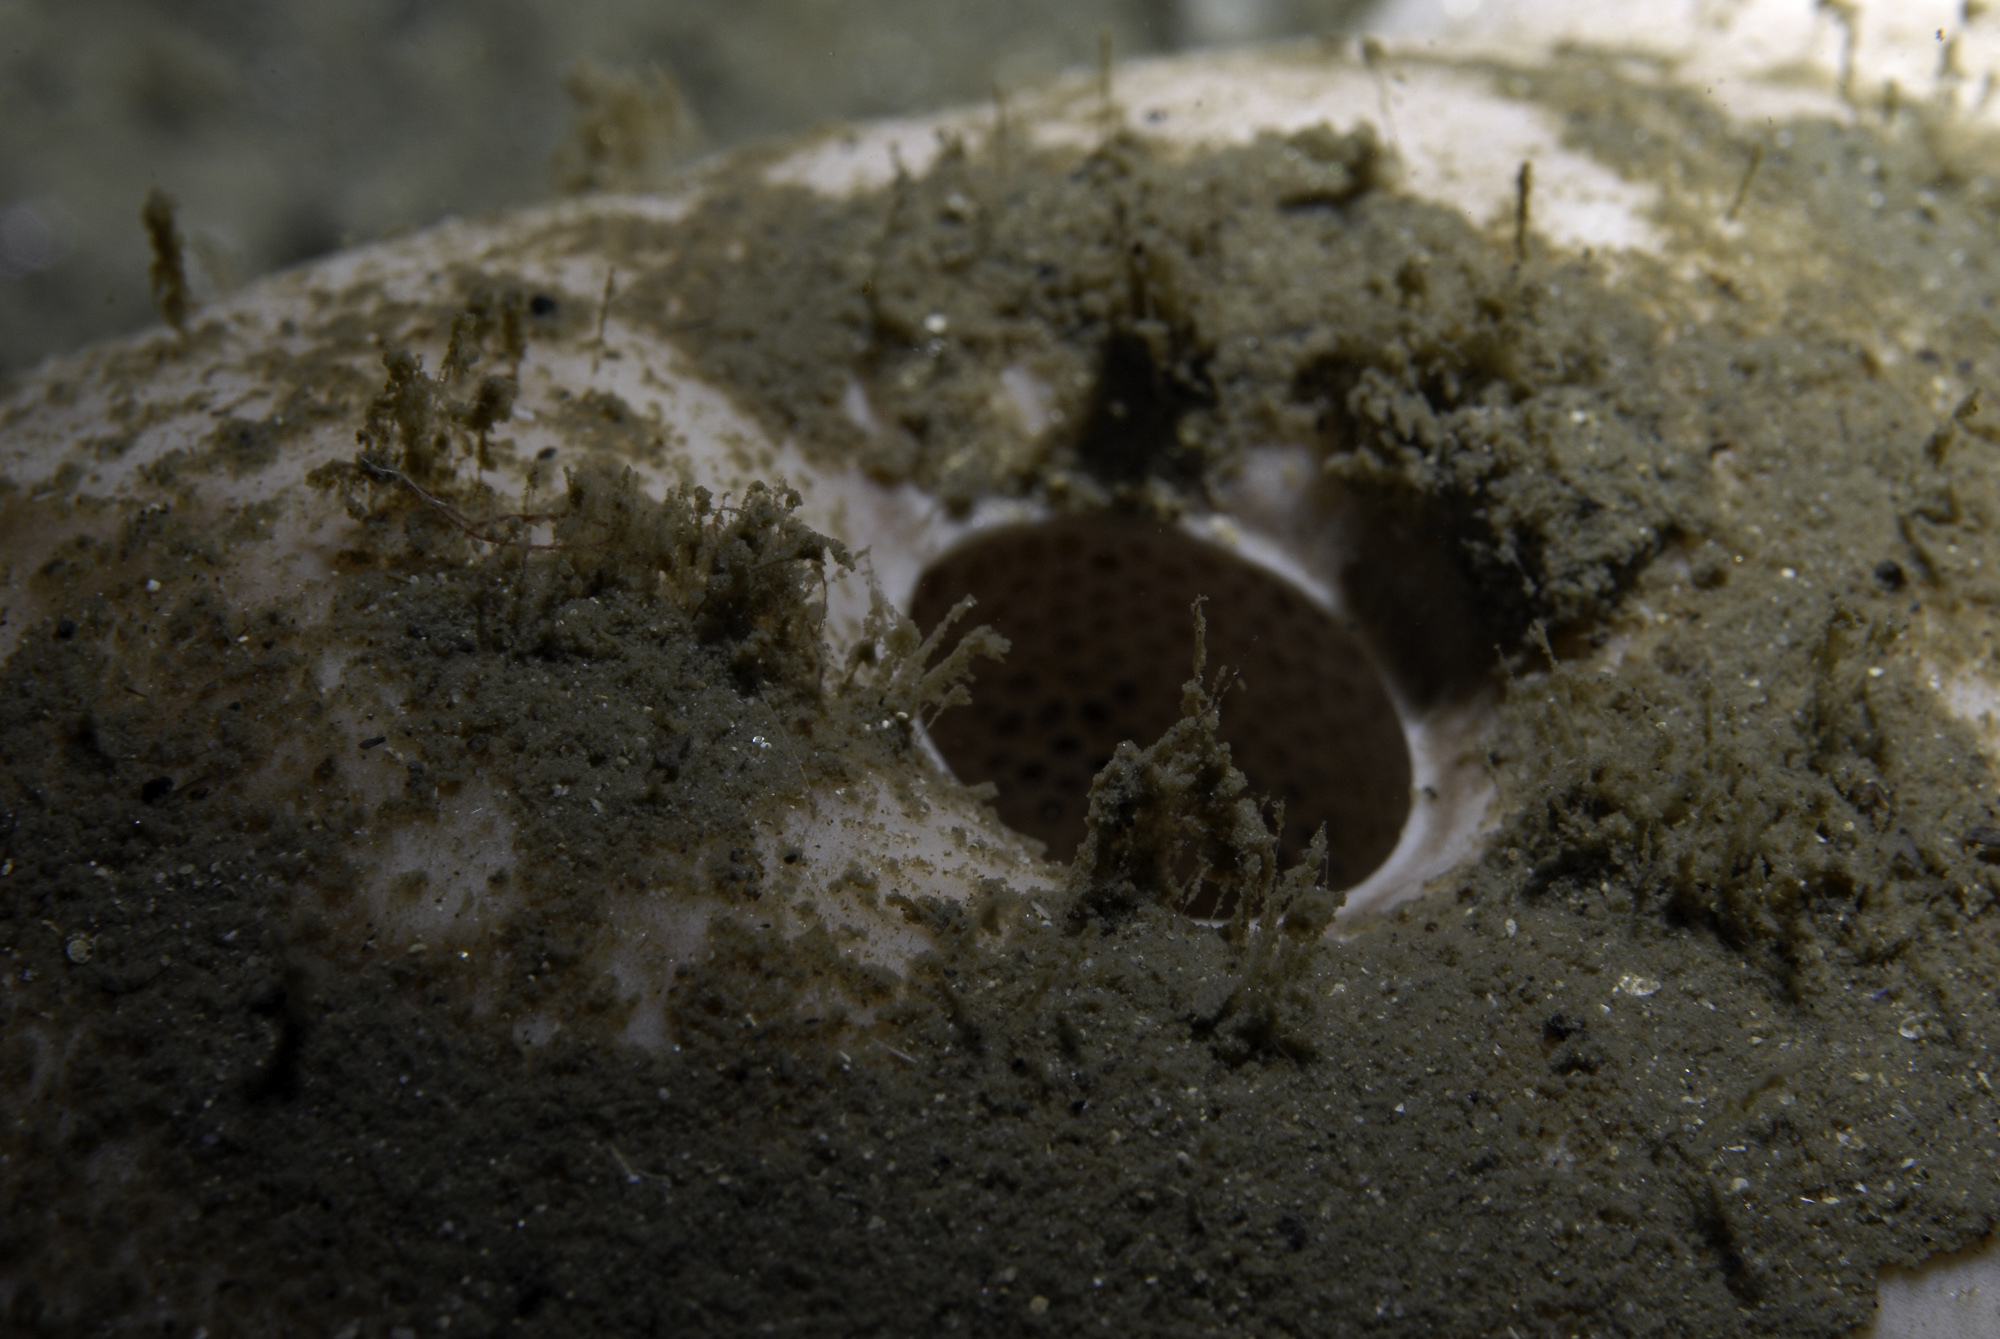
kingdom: Animalia
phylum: Porifera
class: Demospongiae
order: Tetractinellida
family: Geodiidae
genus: Geodia
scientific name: Geodia barretti
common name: Barrett's horny sponge
